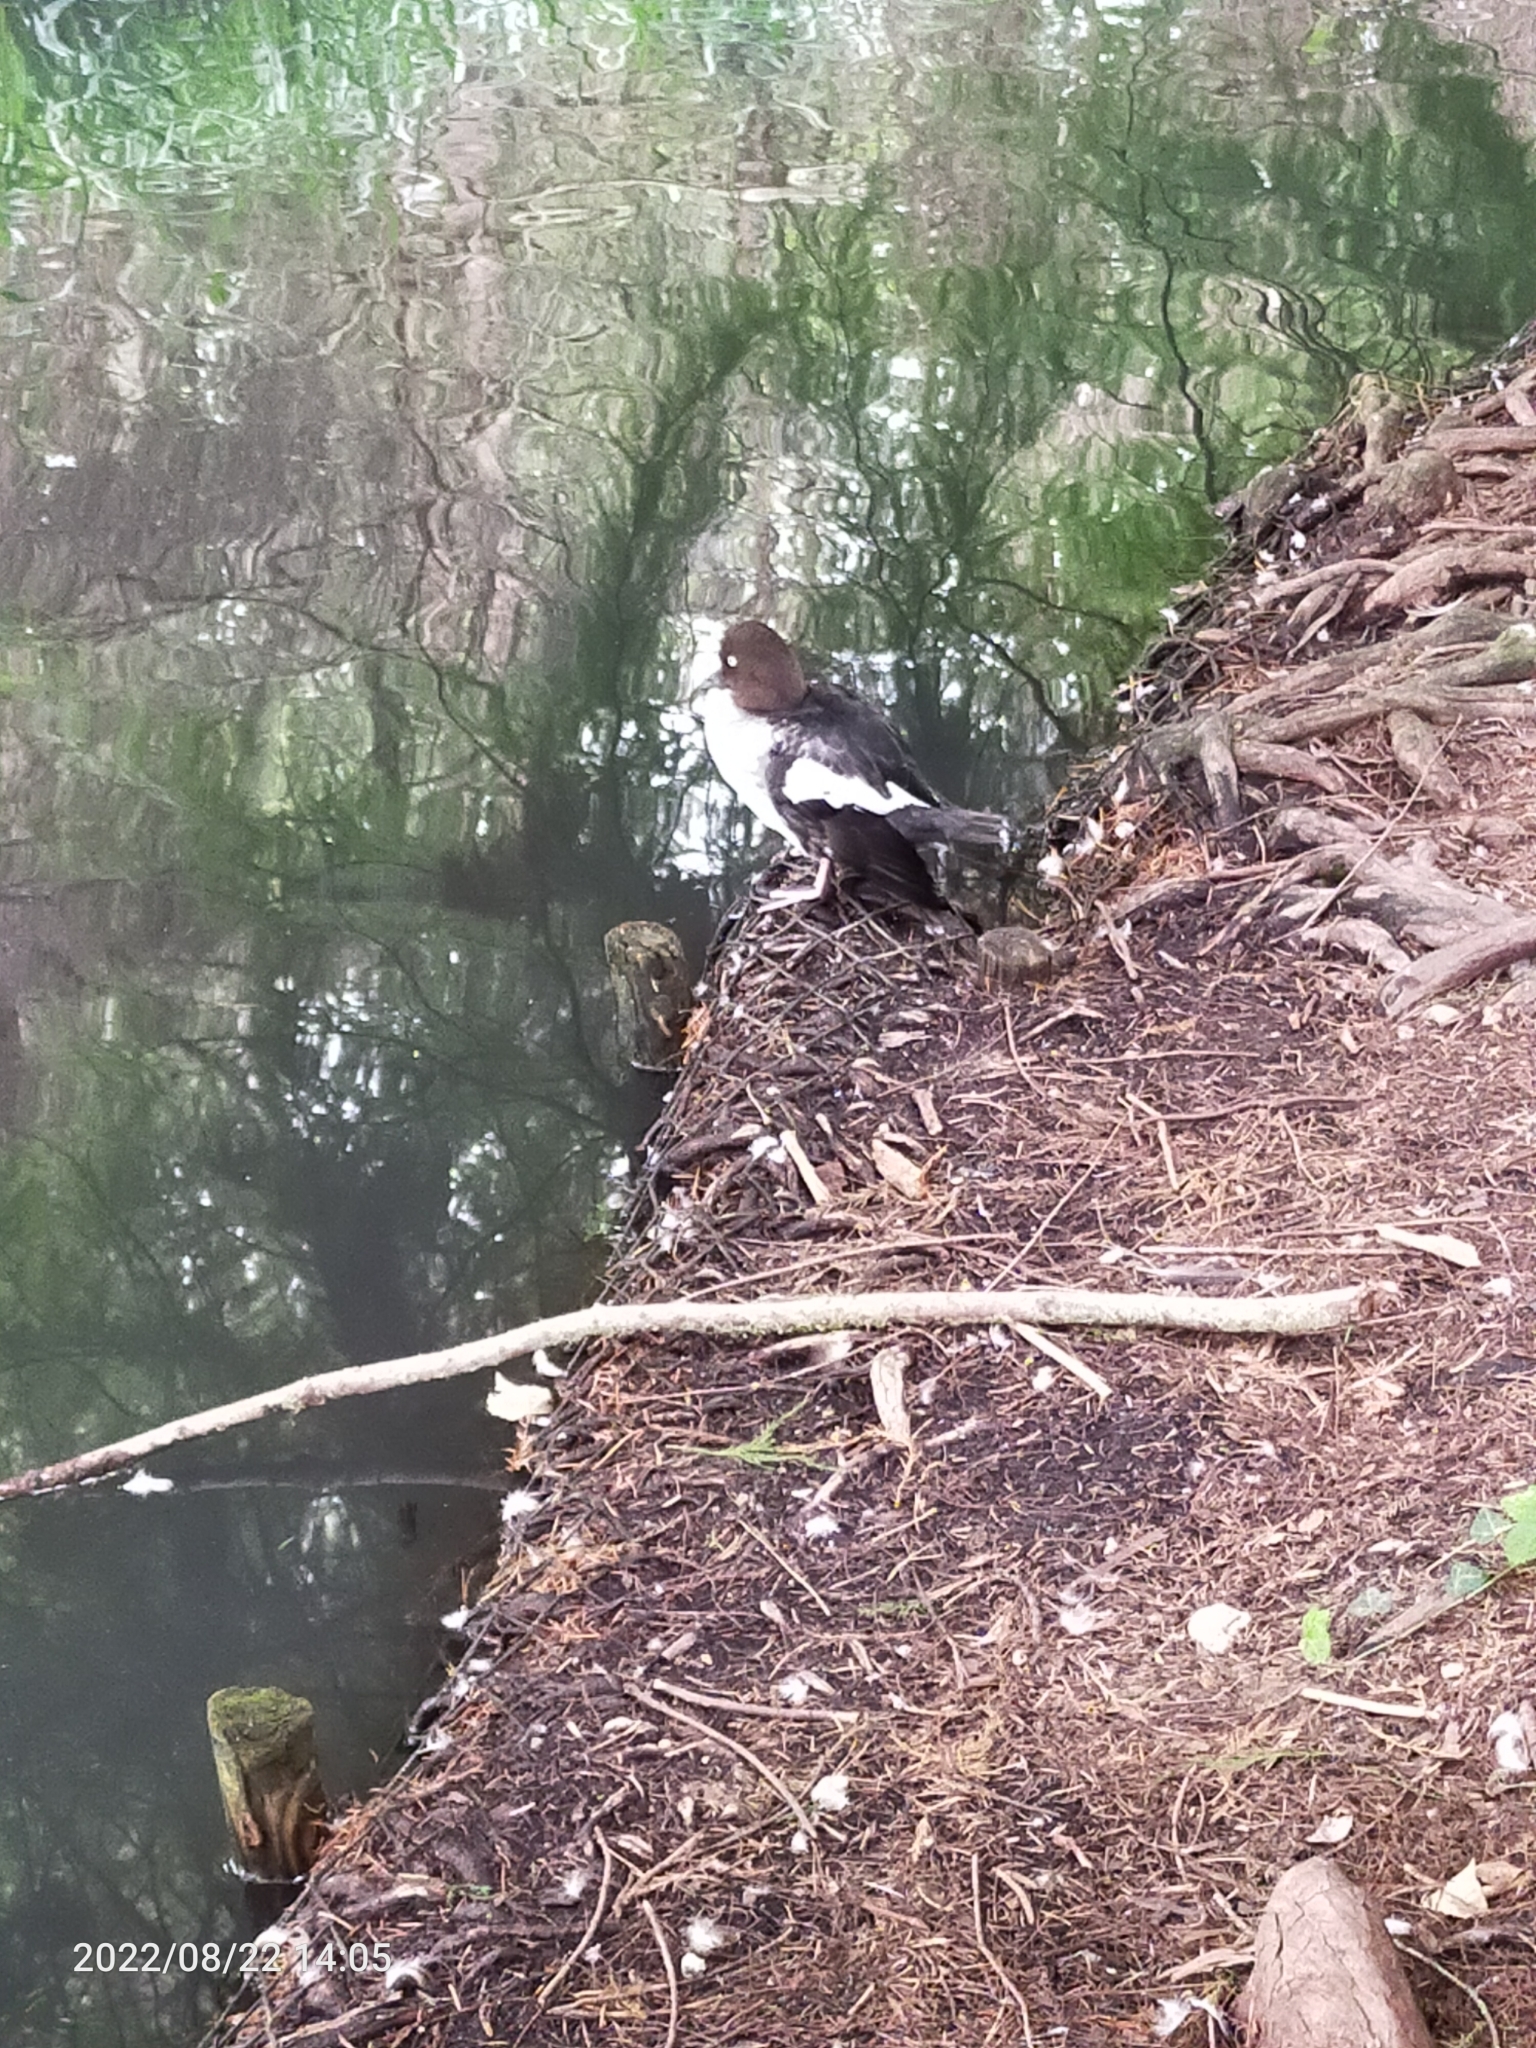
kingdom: Animalia
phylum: Chordata
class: Aves
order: Anseriformes
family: Anatidae
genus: Bucephala
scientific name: Bucephala clangula
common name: Common goldeneye
